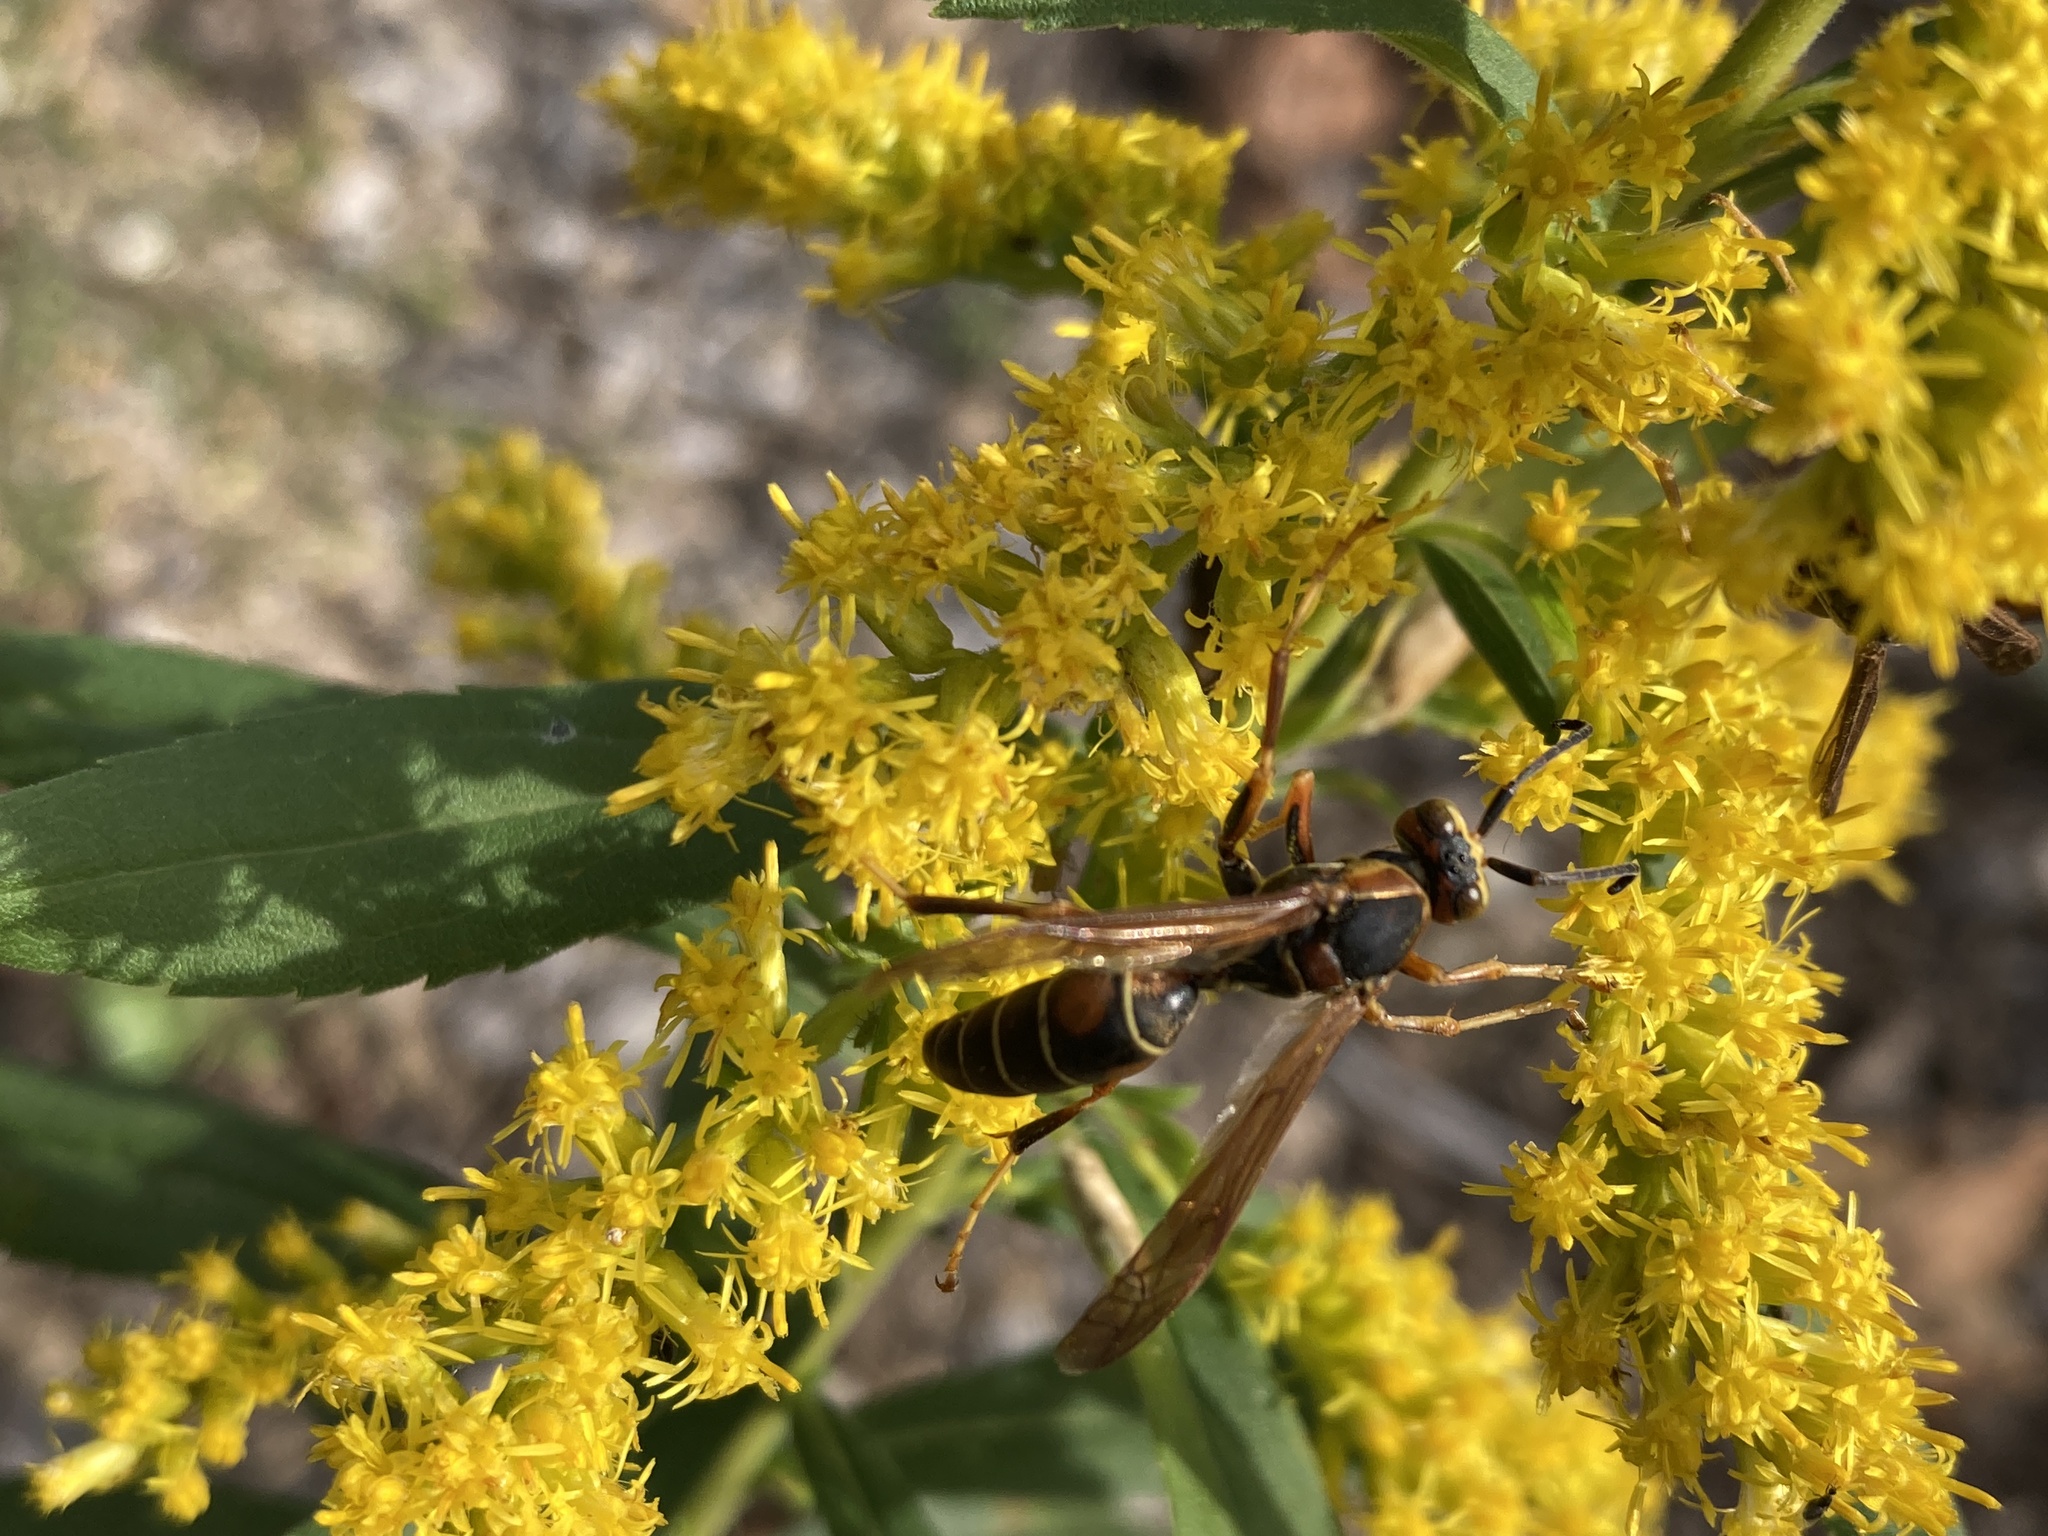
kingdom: Animalia
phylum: Arthropoda
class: Insecta
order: Hymenoptera
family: Eumenidae
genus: Polistes
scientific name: Polistes fuscatus
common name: Dark paper wasp
